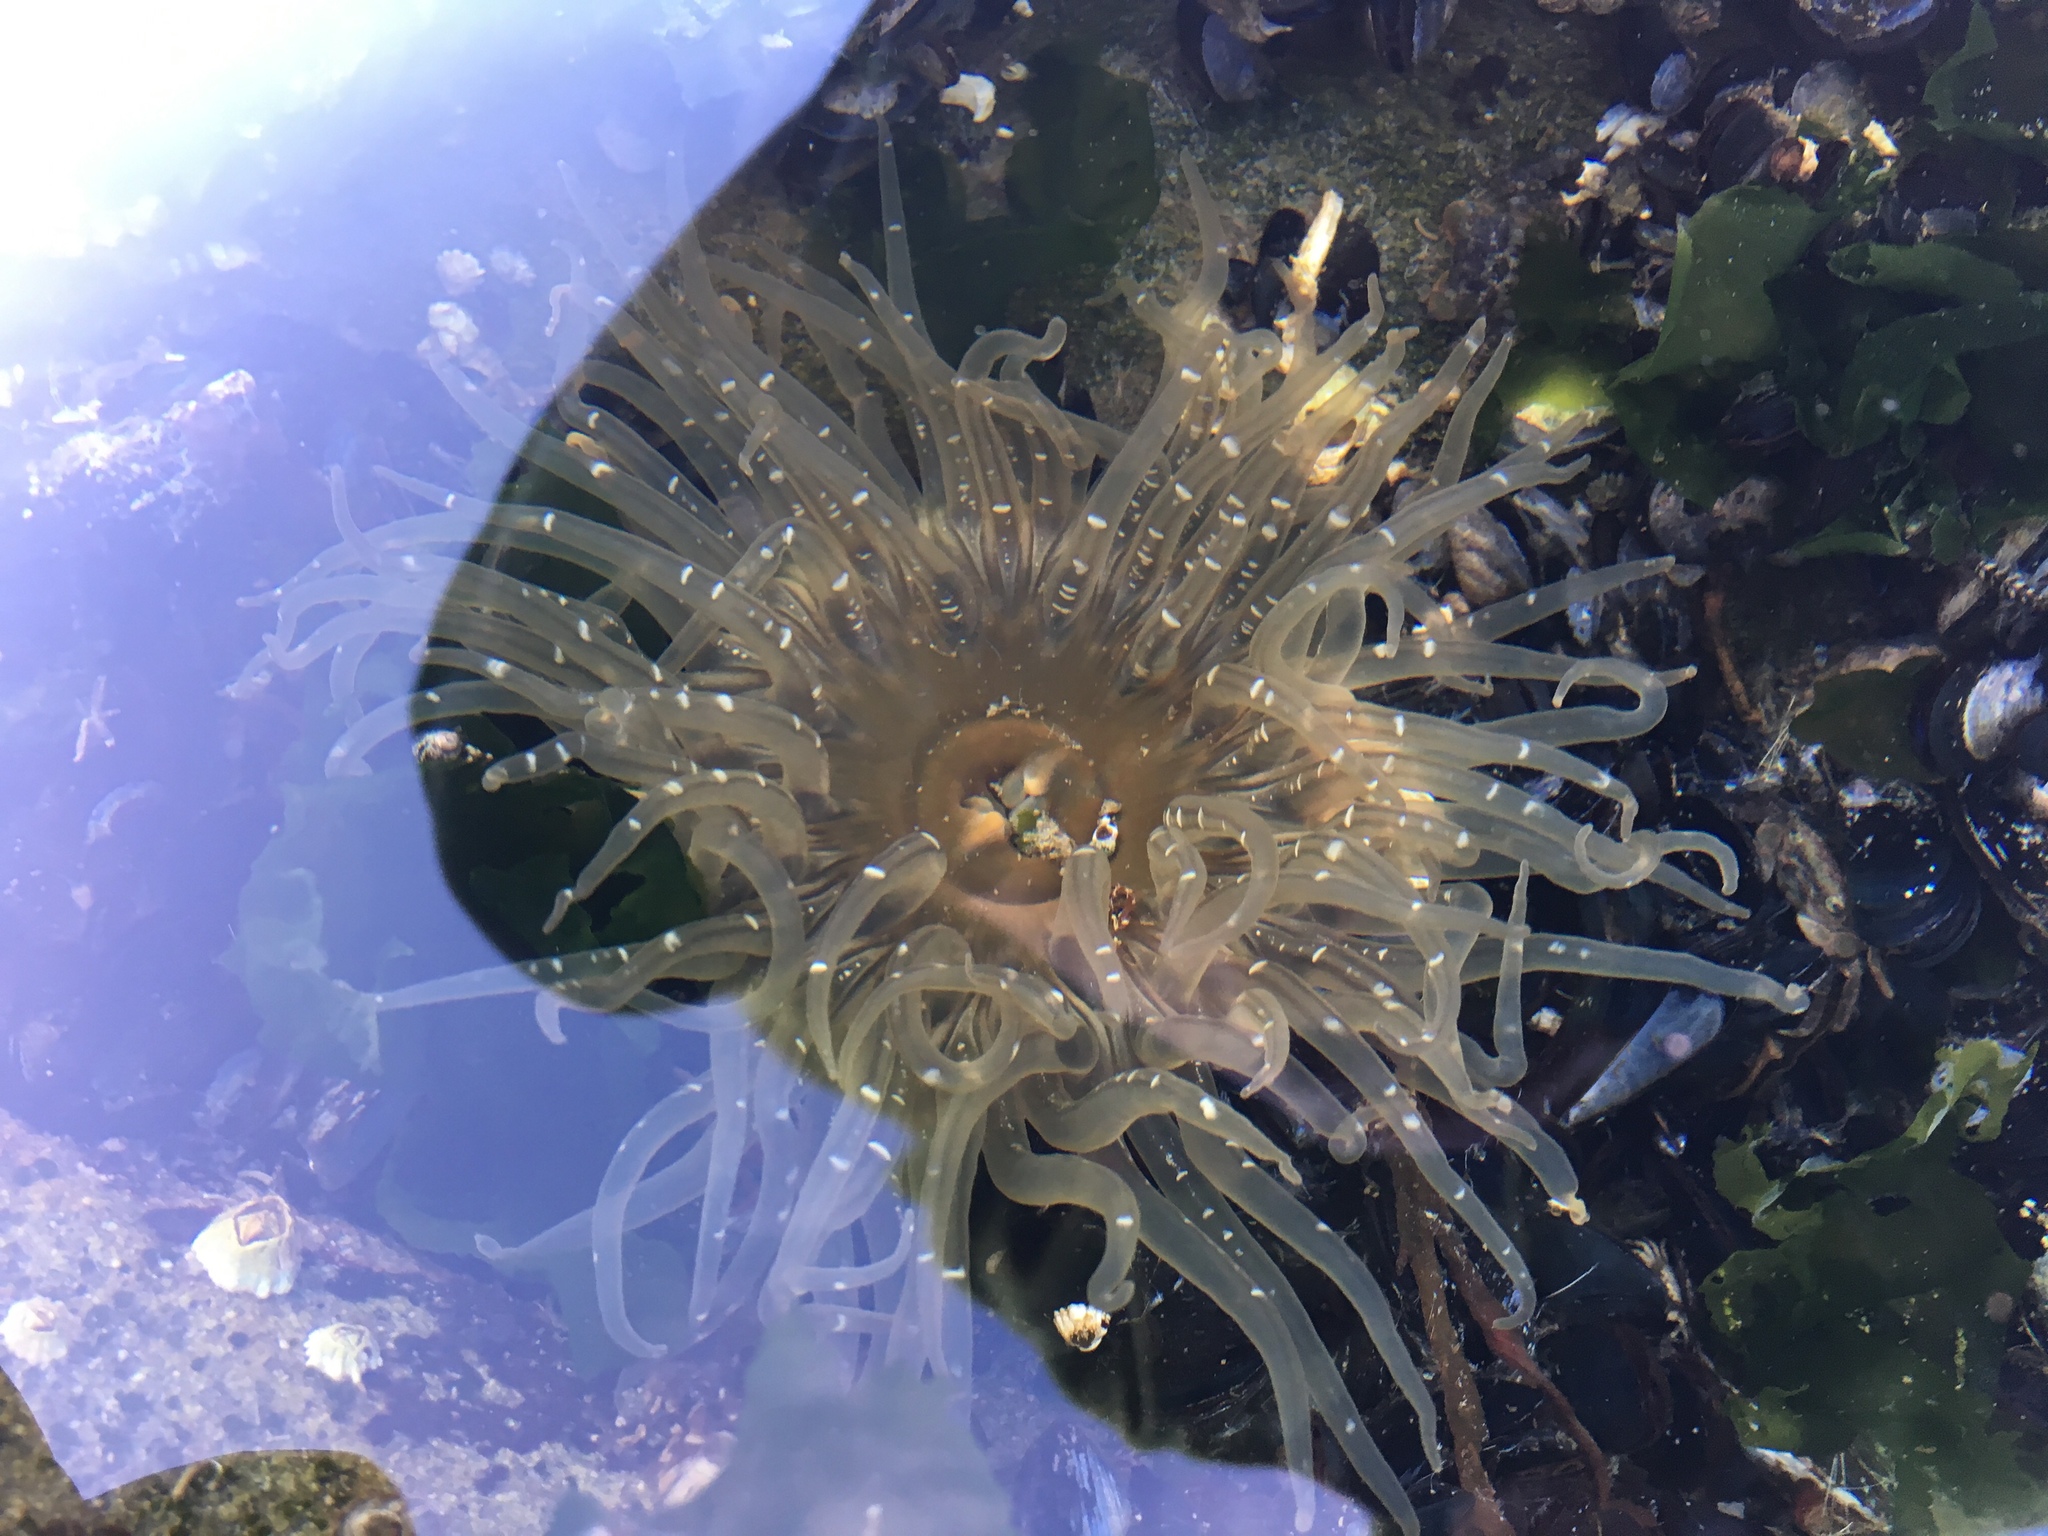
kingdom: Animalia
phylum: Cnidaria
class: Anthozoa
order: Actiniaria
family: Actiniidae
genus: Anthopleura
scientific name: Anthopleura artemisia
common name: Buried sea anemone
